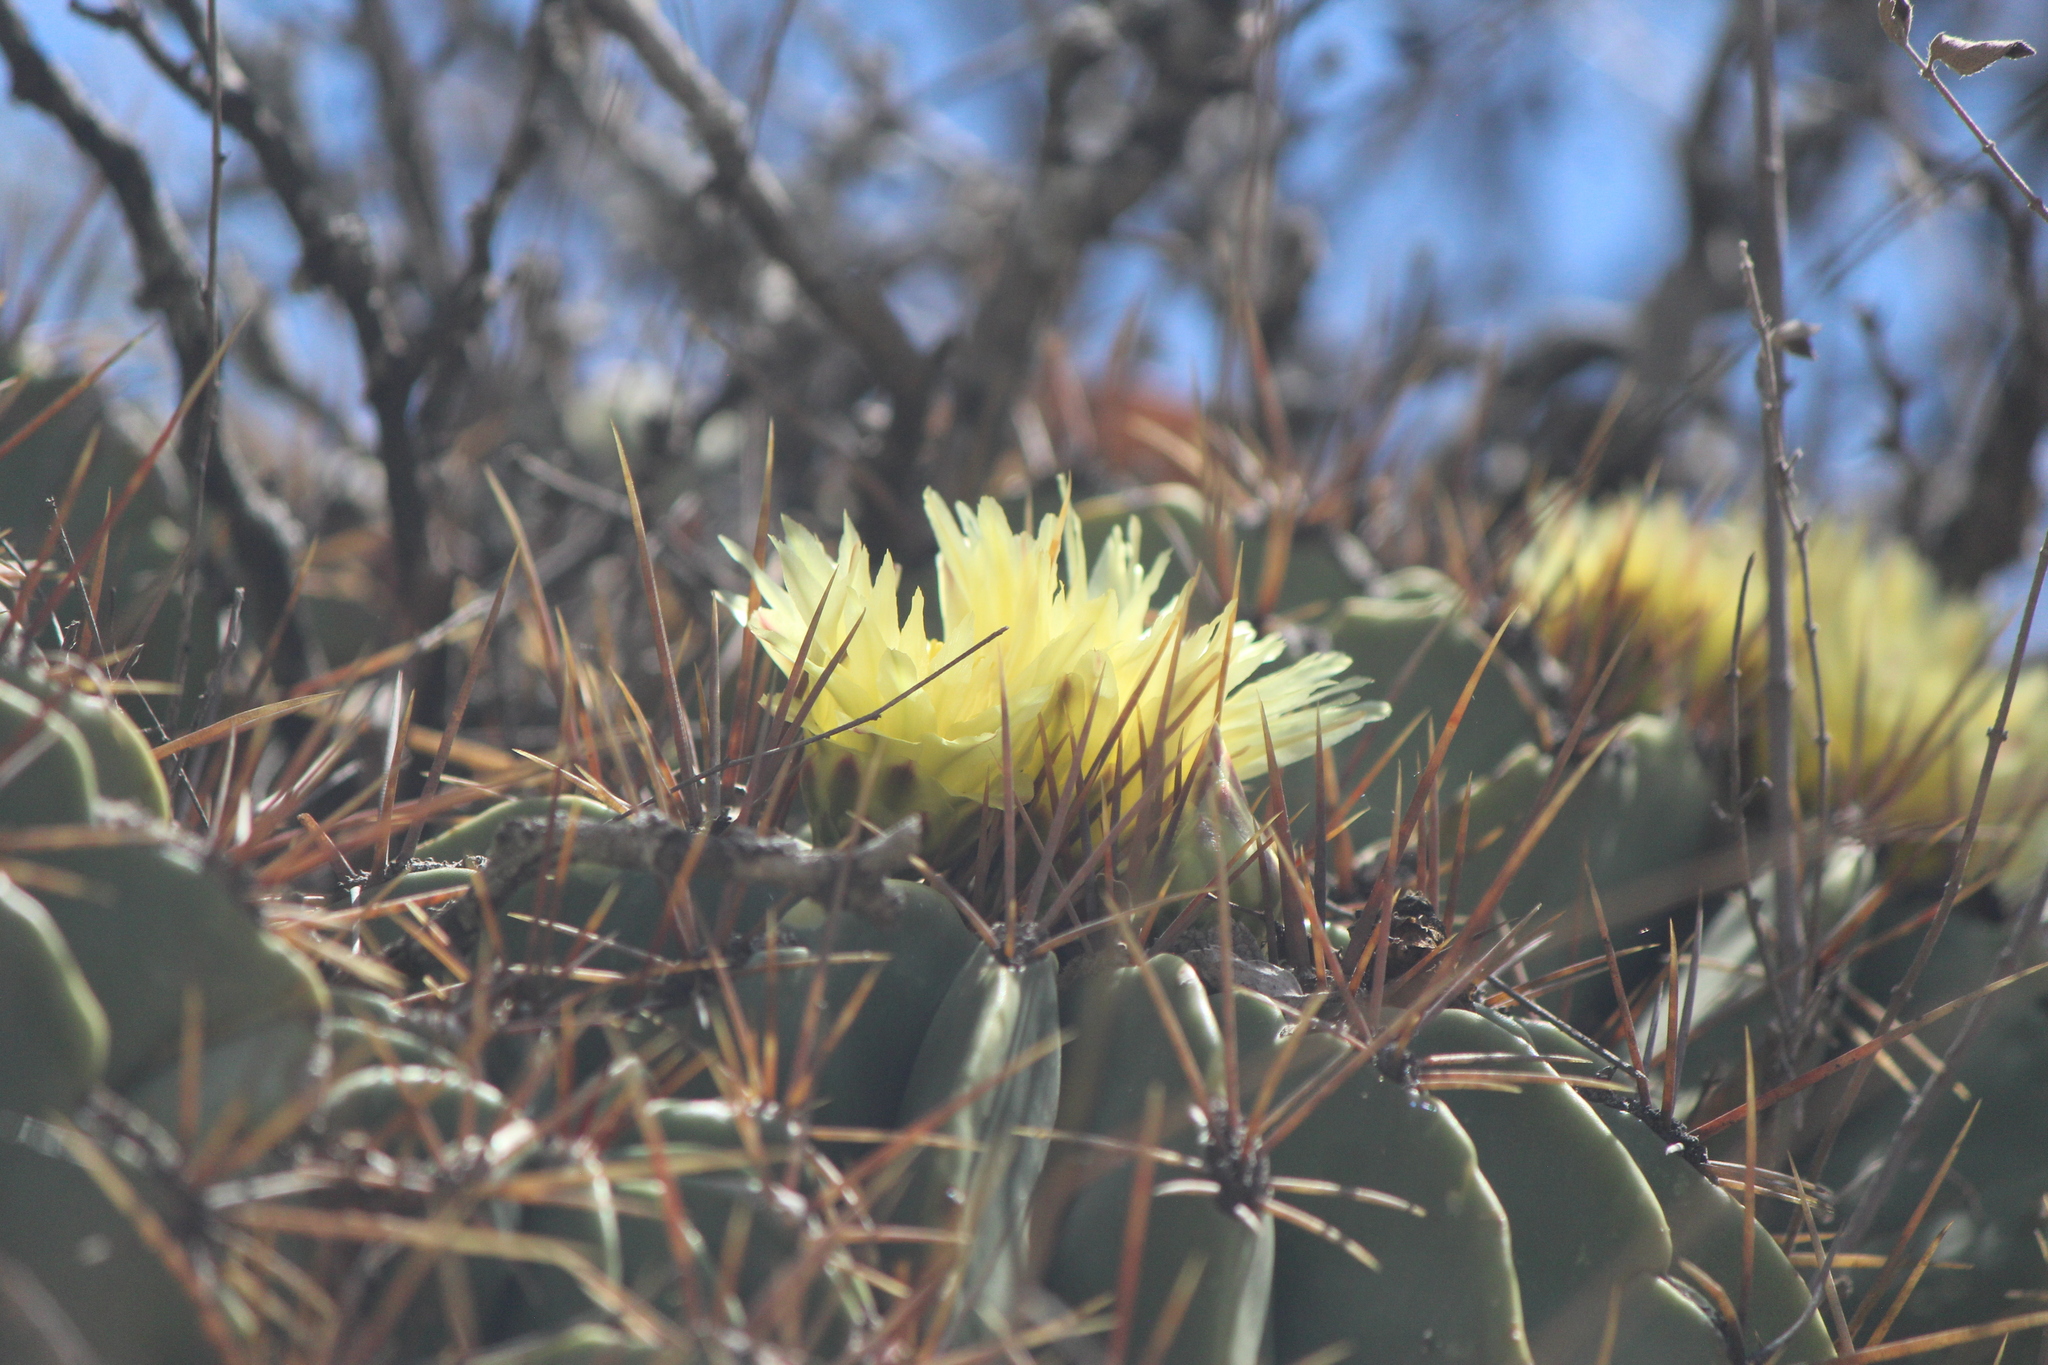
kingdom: Plantae
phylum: Tracheophyta
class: Magnoliopsida
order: Caryophyllales
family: Cactaceae
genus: Parrycactus
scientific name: Parrycactus echidne
